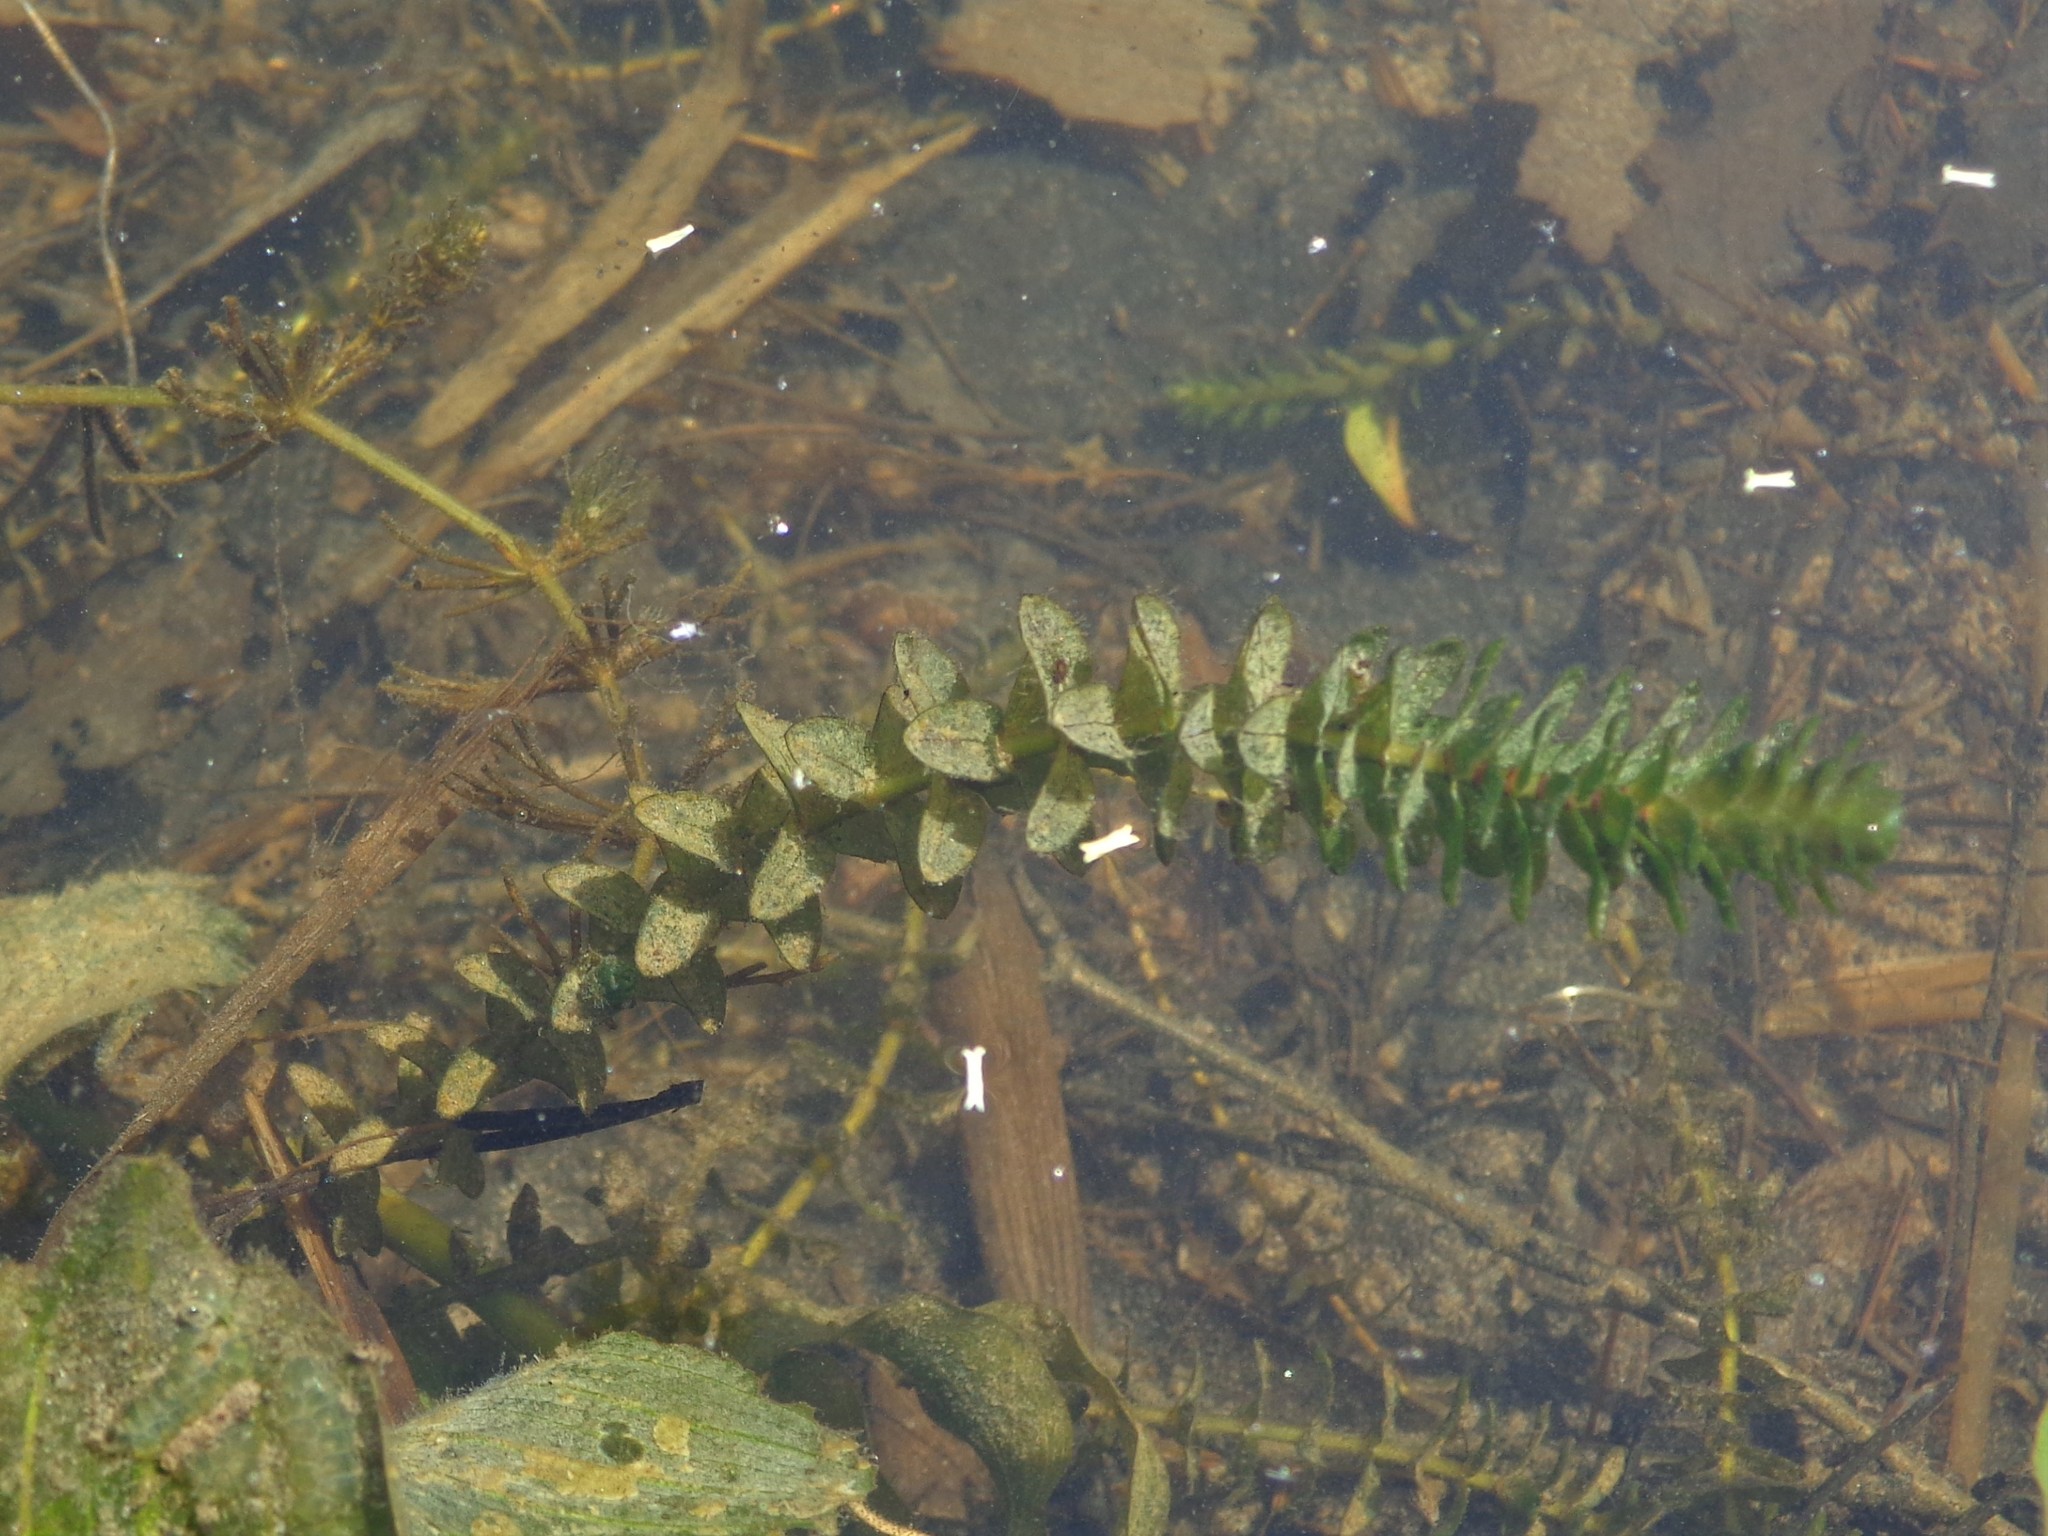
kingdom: Plantae
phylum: Tracheophyta
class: Liliopsida
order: Alismatales
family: Hydrocharitaceae
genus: Elodea
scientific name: Elodea canadensis
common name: Canadian waterweed
